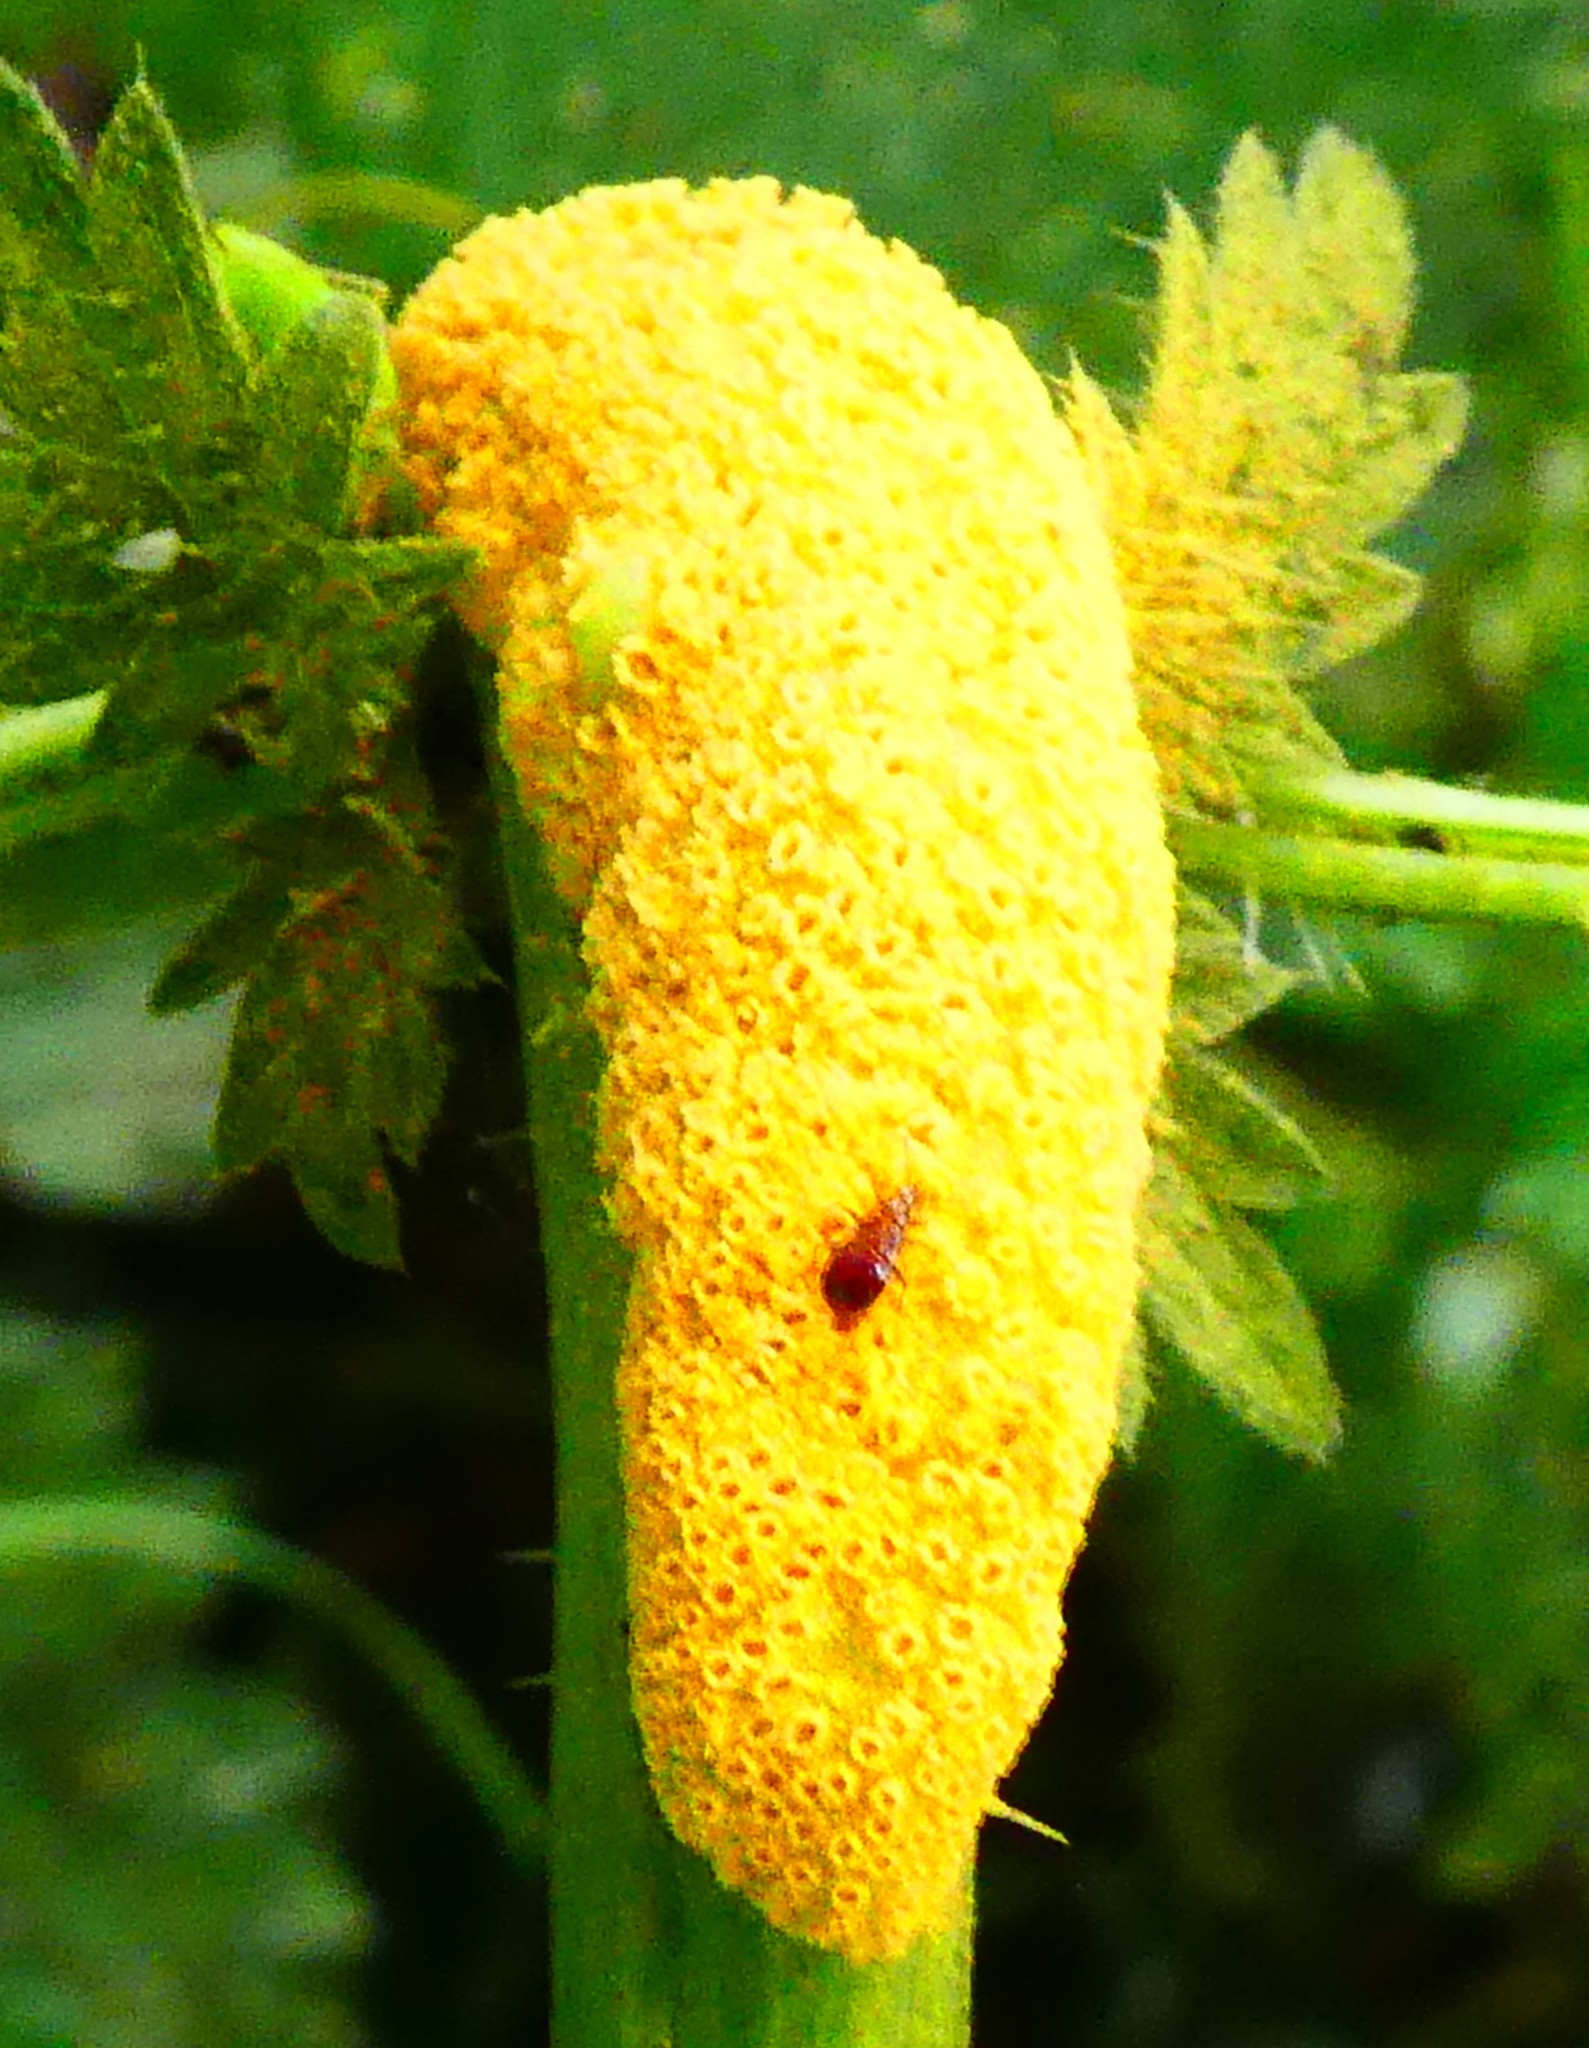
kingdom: Fungi
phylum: Basidiomycota
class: Pucciniomycetes
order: Pucciniales
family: Pucciniaceae
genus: Puccinia
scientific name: Puccinia urticata
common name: Nettle clustercup rust fungus
